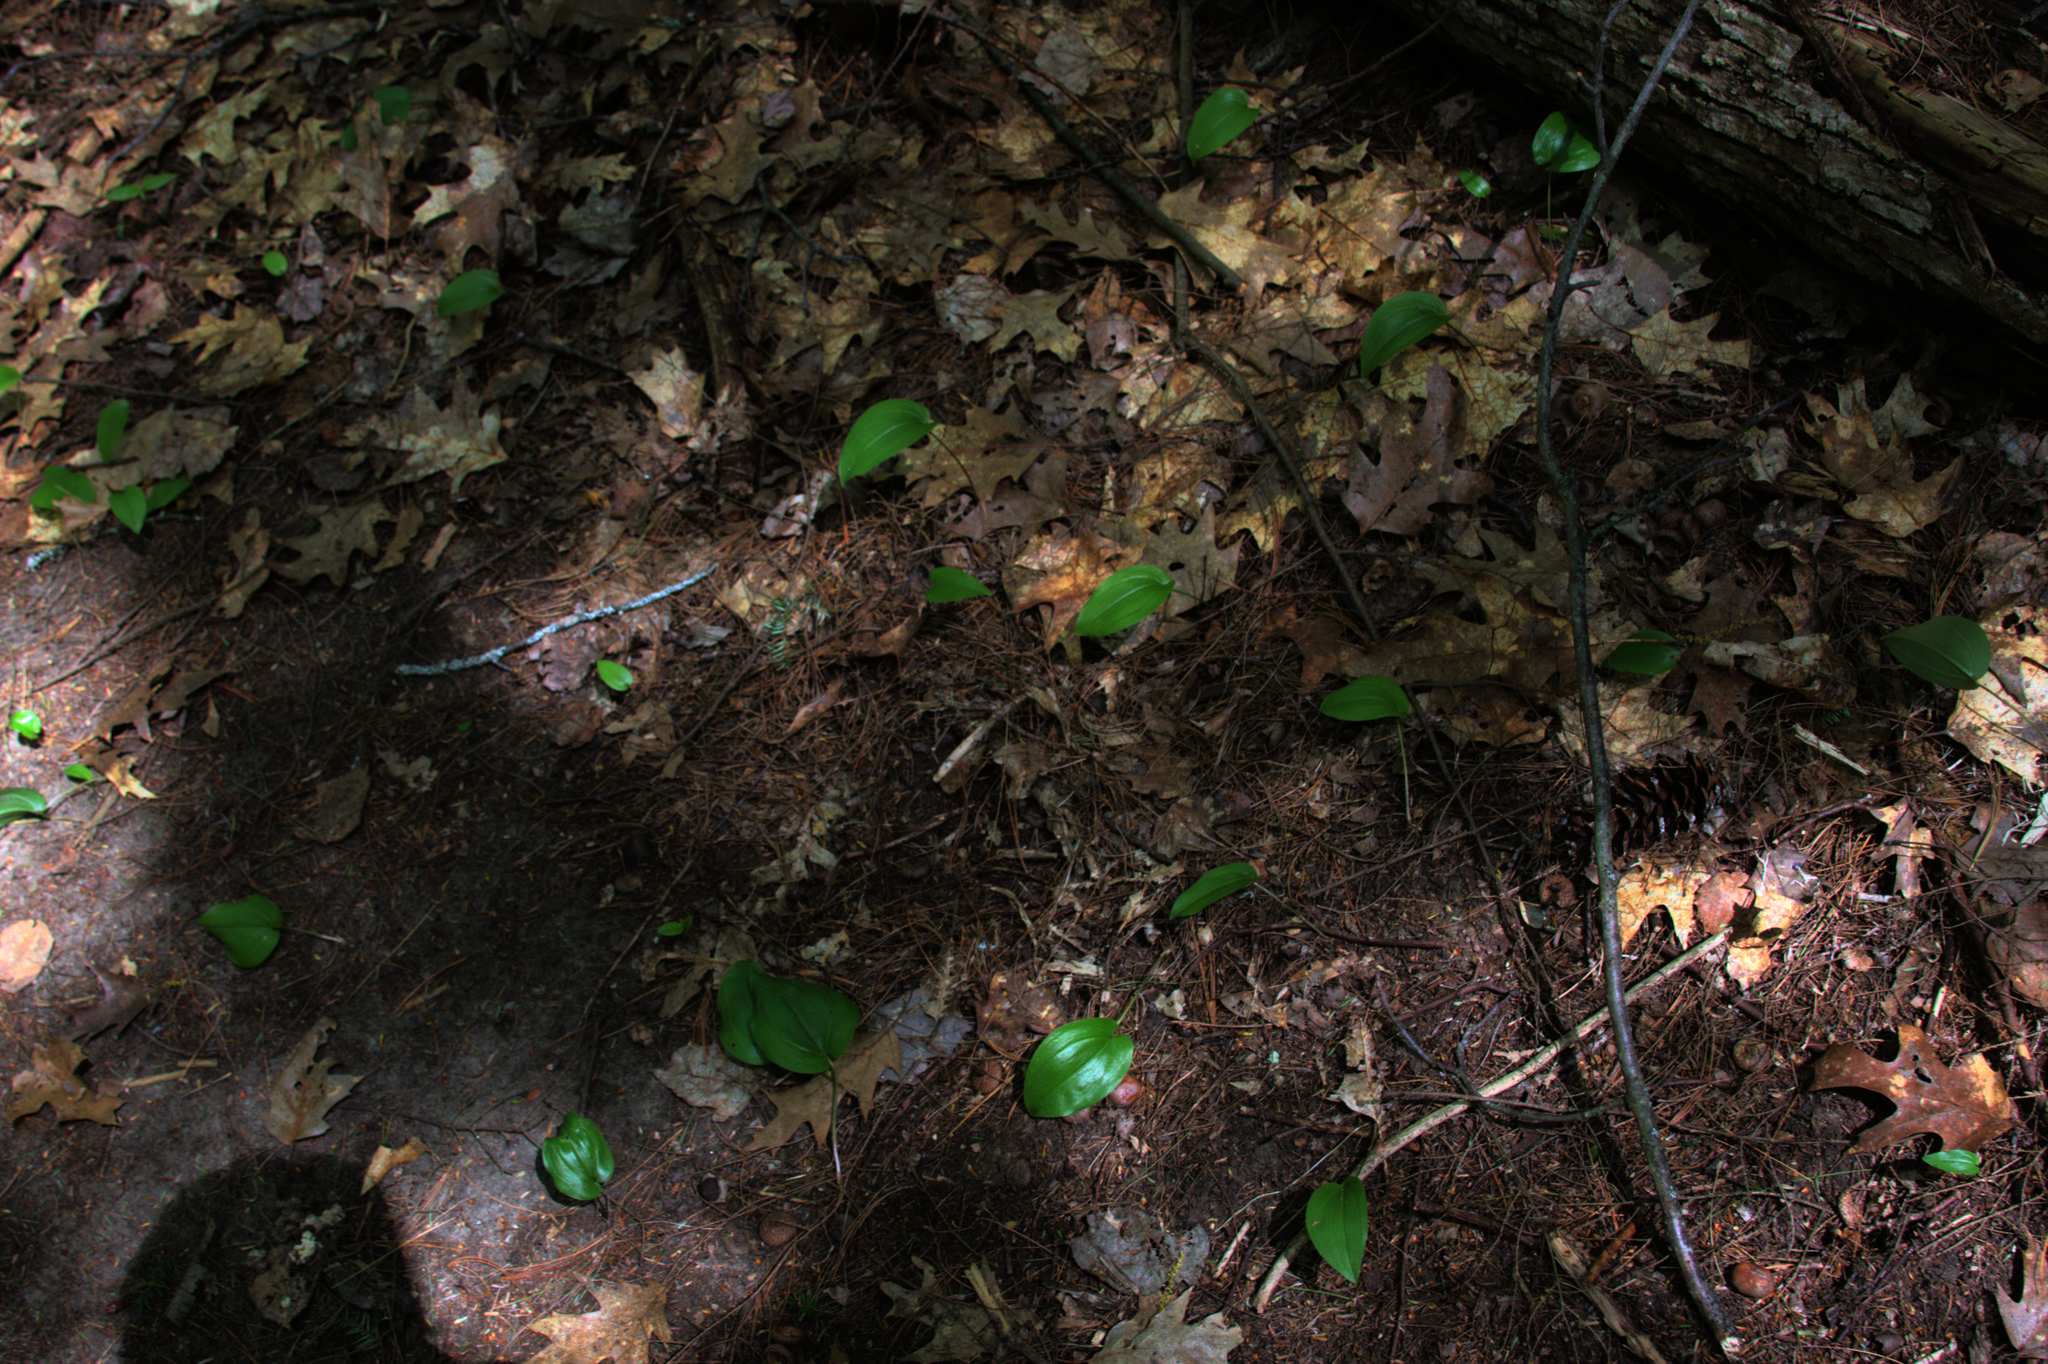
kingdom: Plantae
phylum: Tracheophyta
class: Liliopsida
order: Asparagales
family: Asparagaceae
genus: Maianthemum
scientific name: Maianthemum canadense
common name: False lily-of-the-valley
